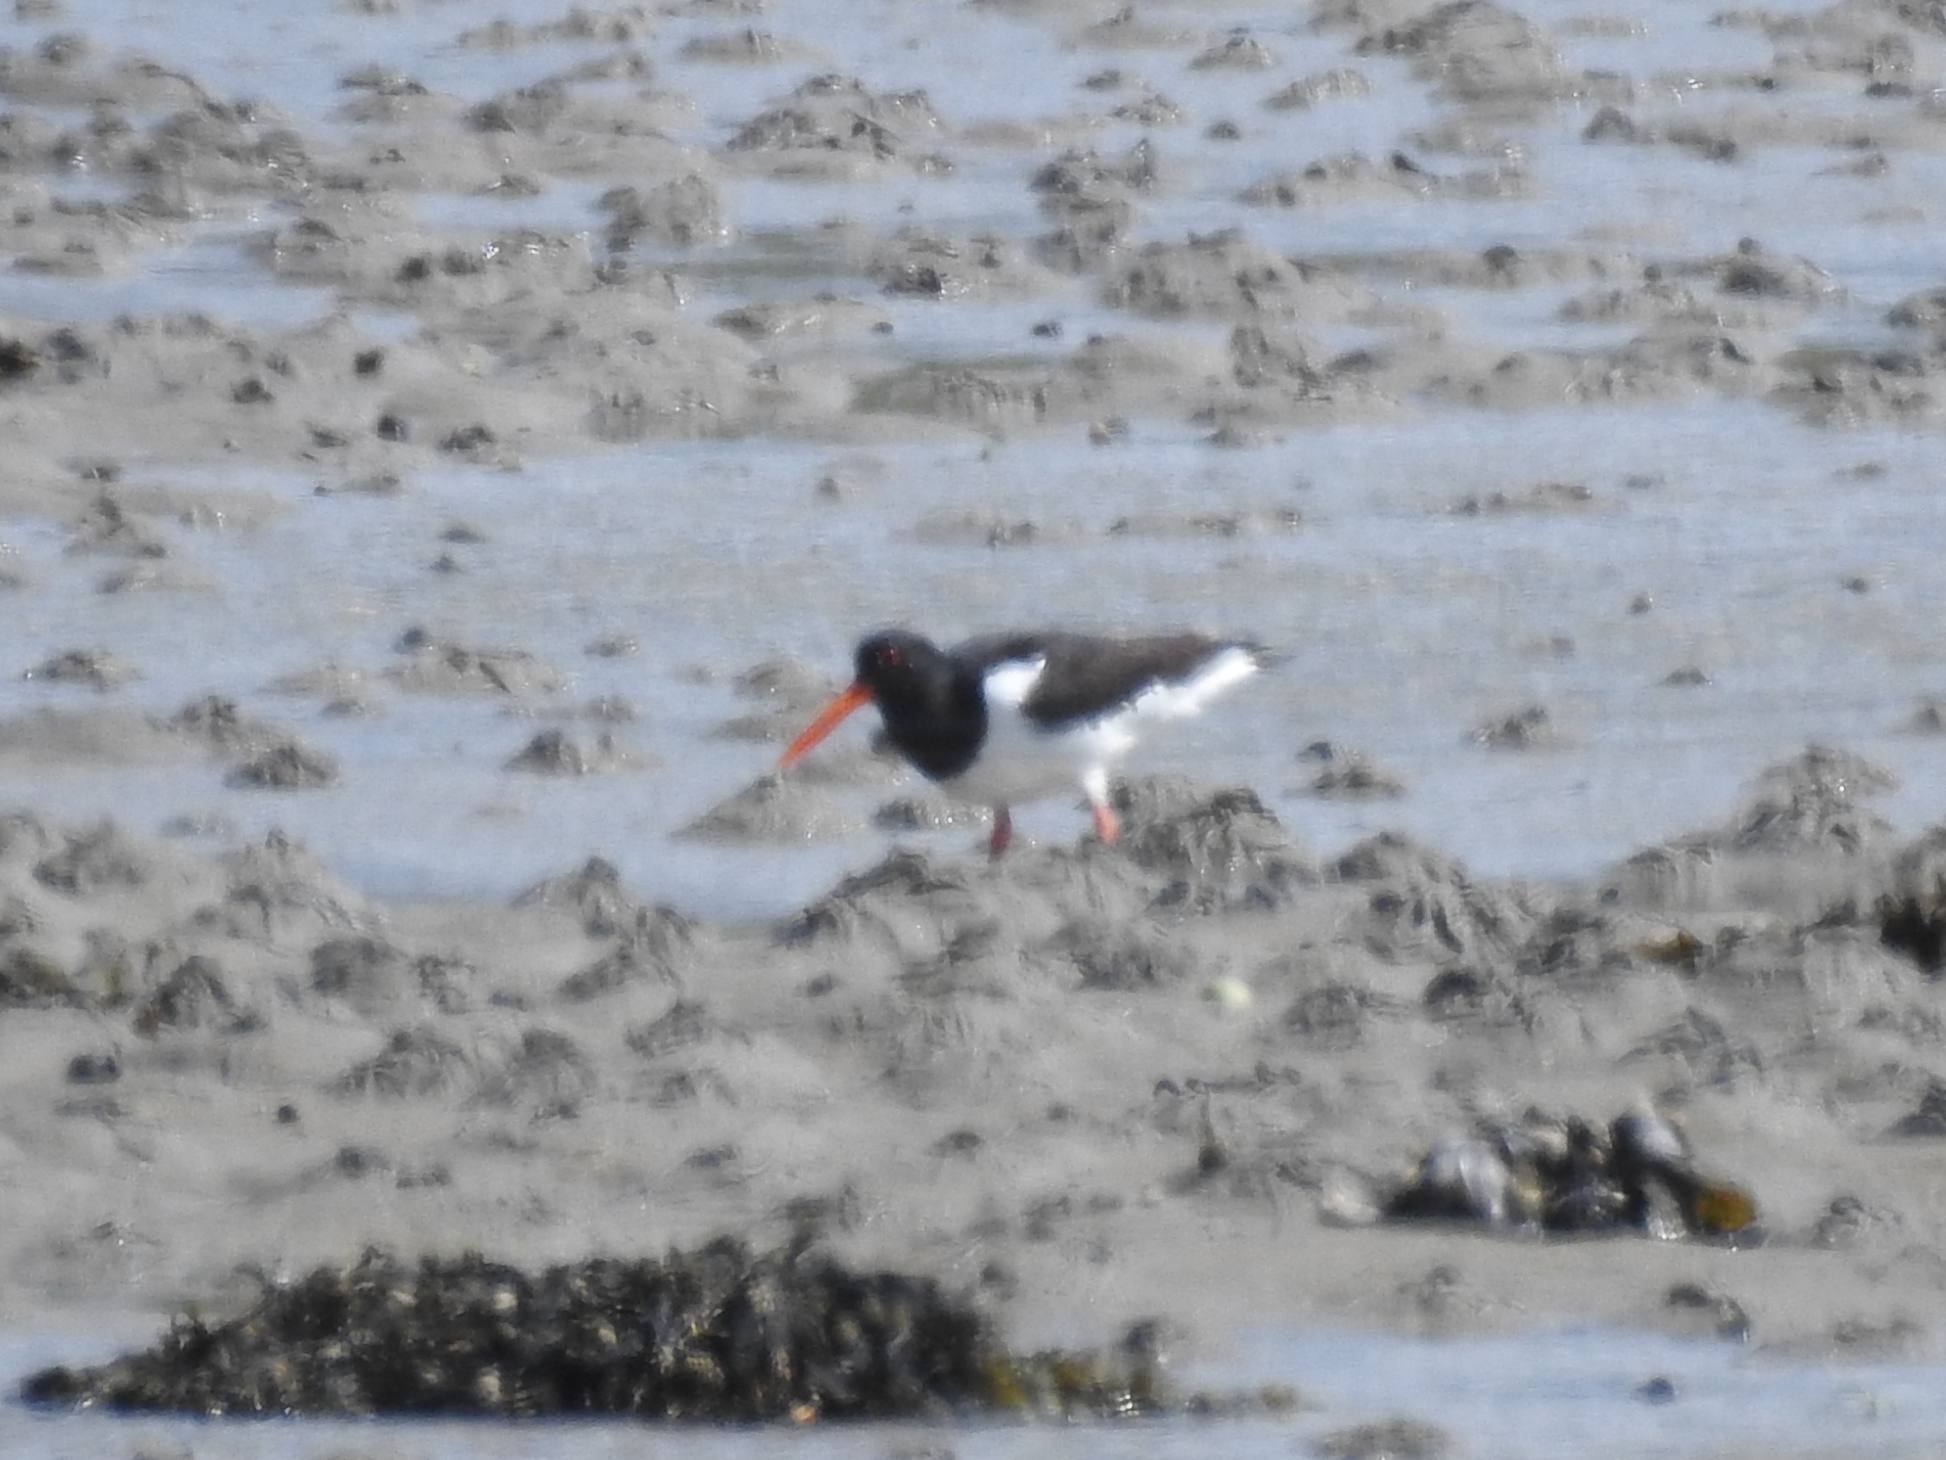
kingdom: Animalia
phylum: Chordata
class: Aves
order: Charadriiformes
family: Haematopodidae
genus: Haematopus
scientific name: Haematopus ostralegus
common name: Eurasian oystercatcher
